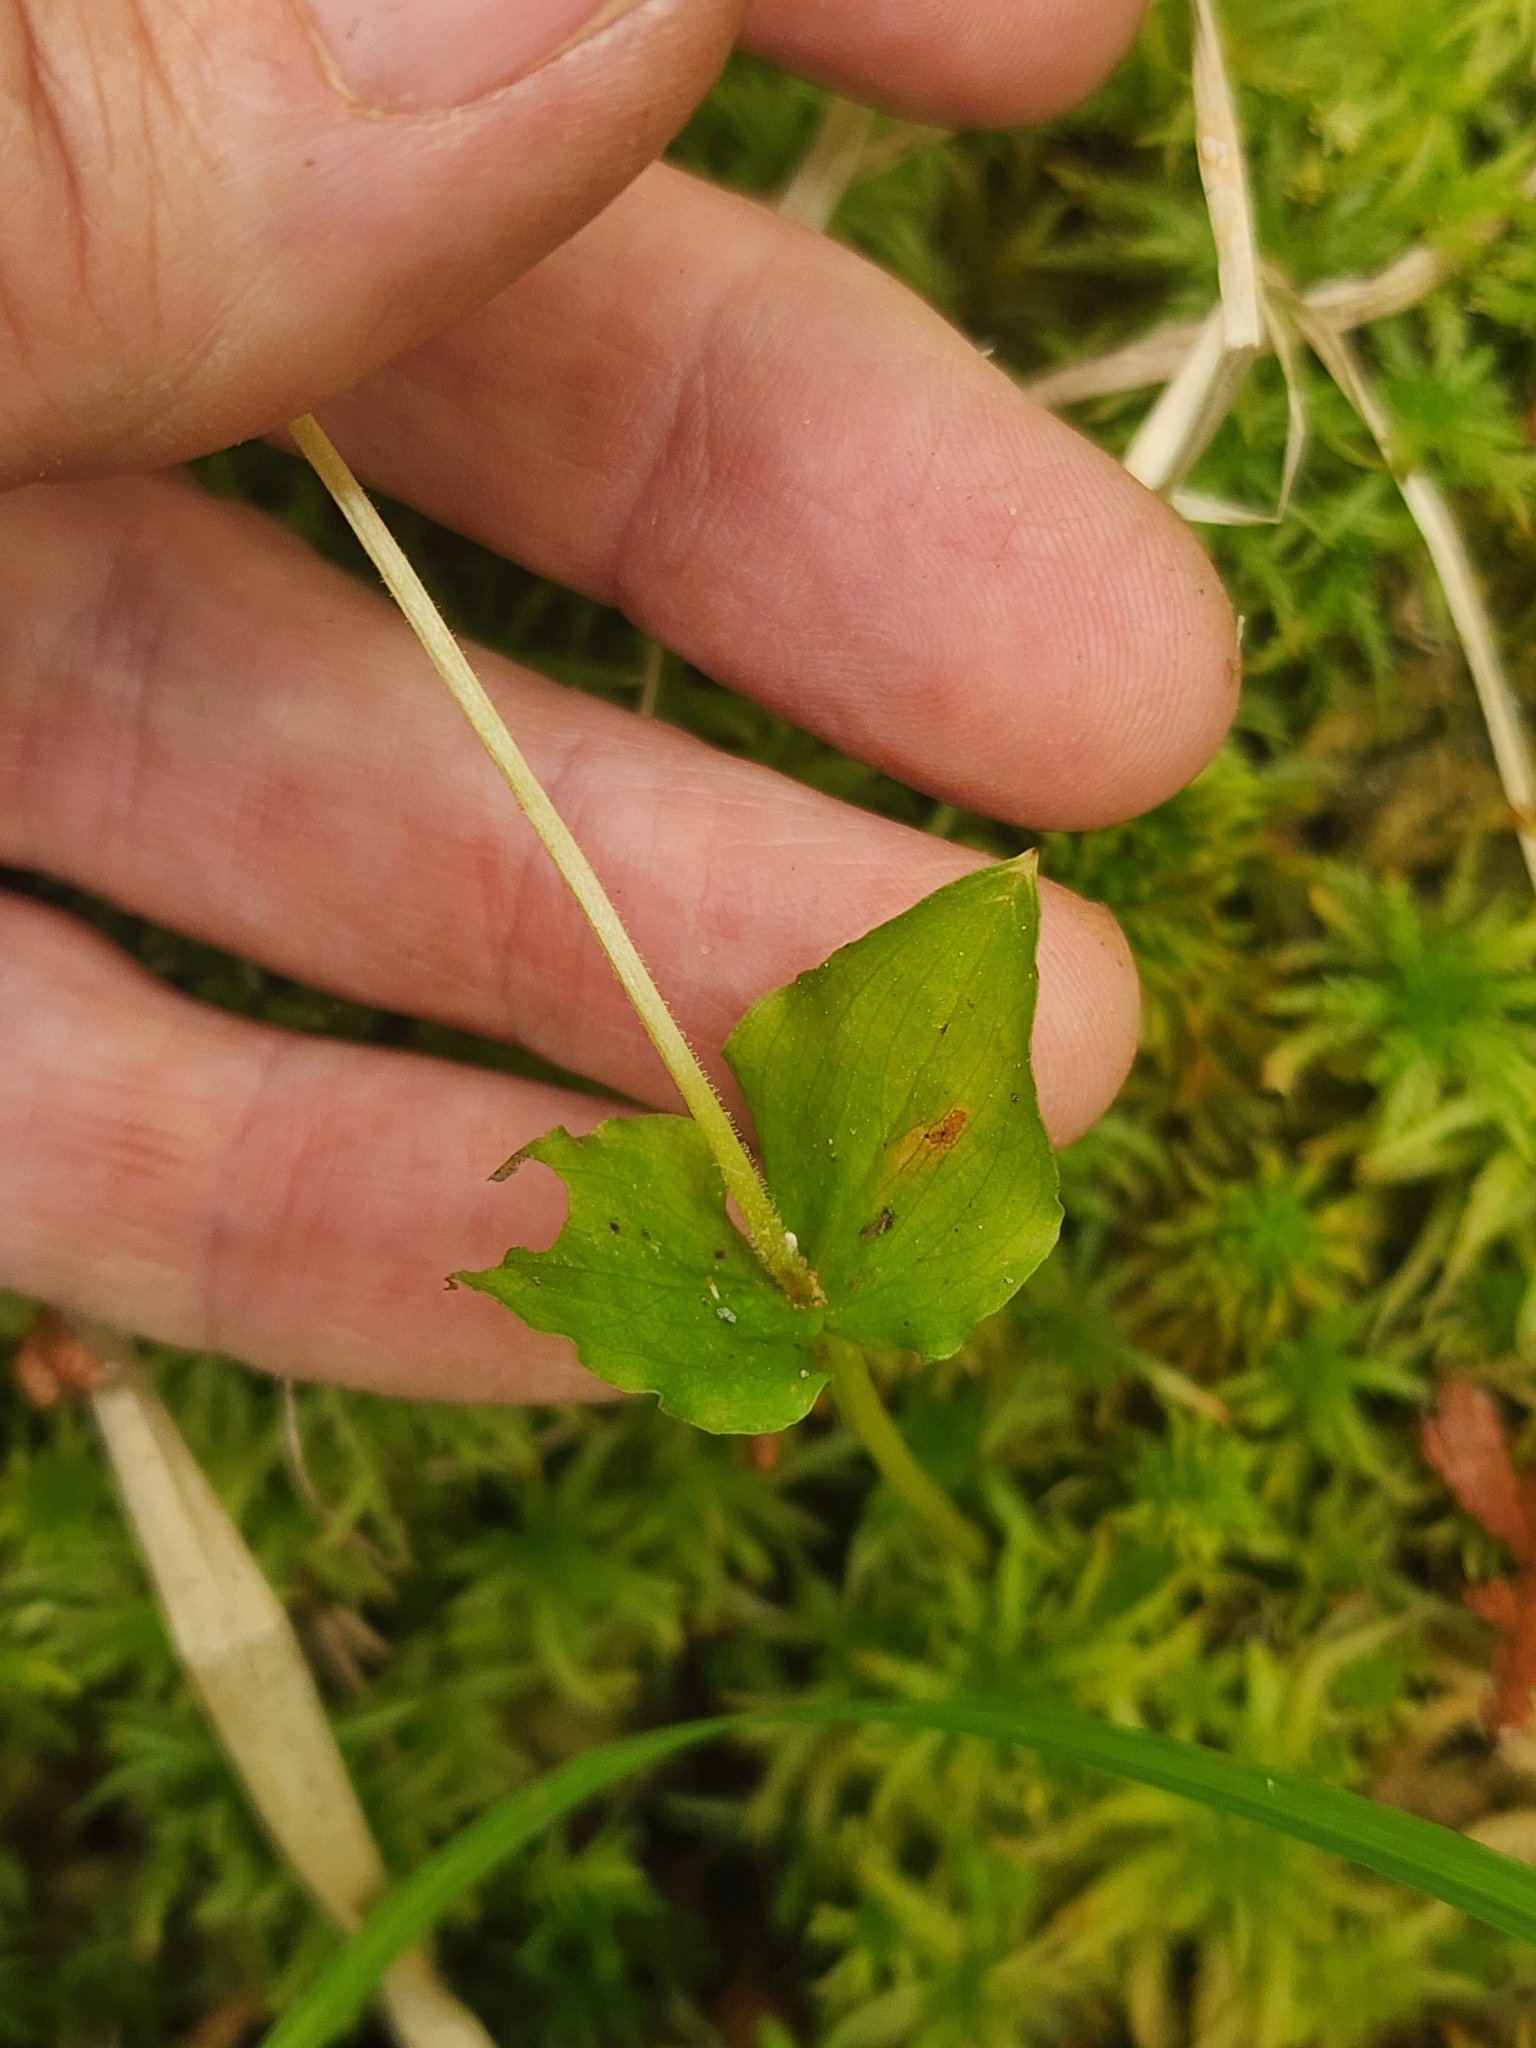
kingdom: Plantae
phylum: Tracheophyta
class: Liliopsida
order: Asparagales
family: Orchidaceae
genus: Neottia
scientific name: Neottia cordata
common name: Lesser twayblade
